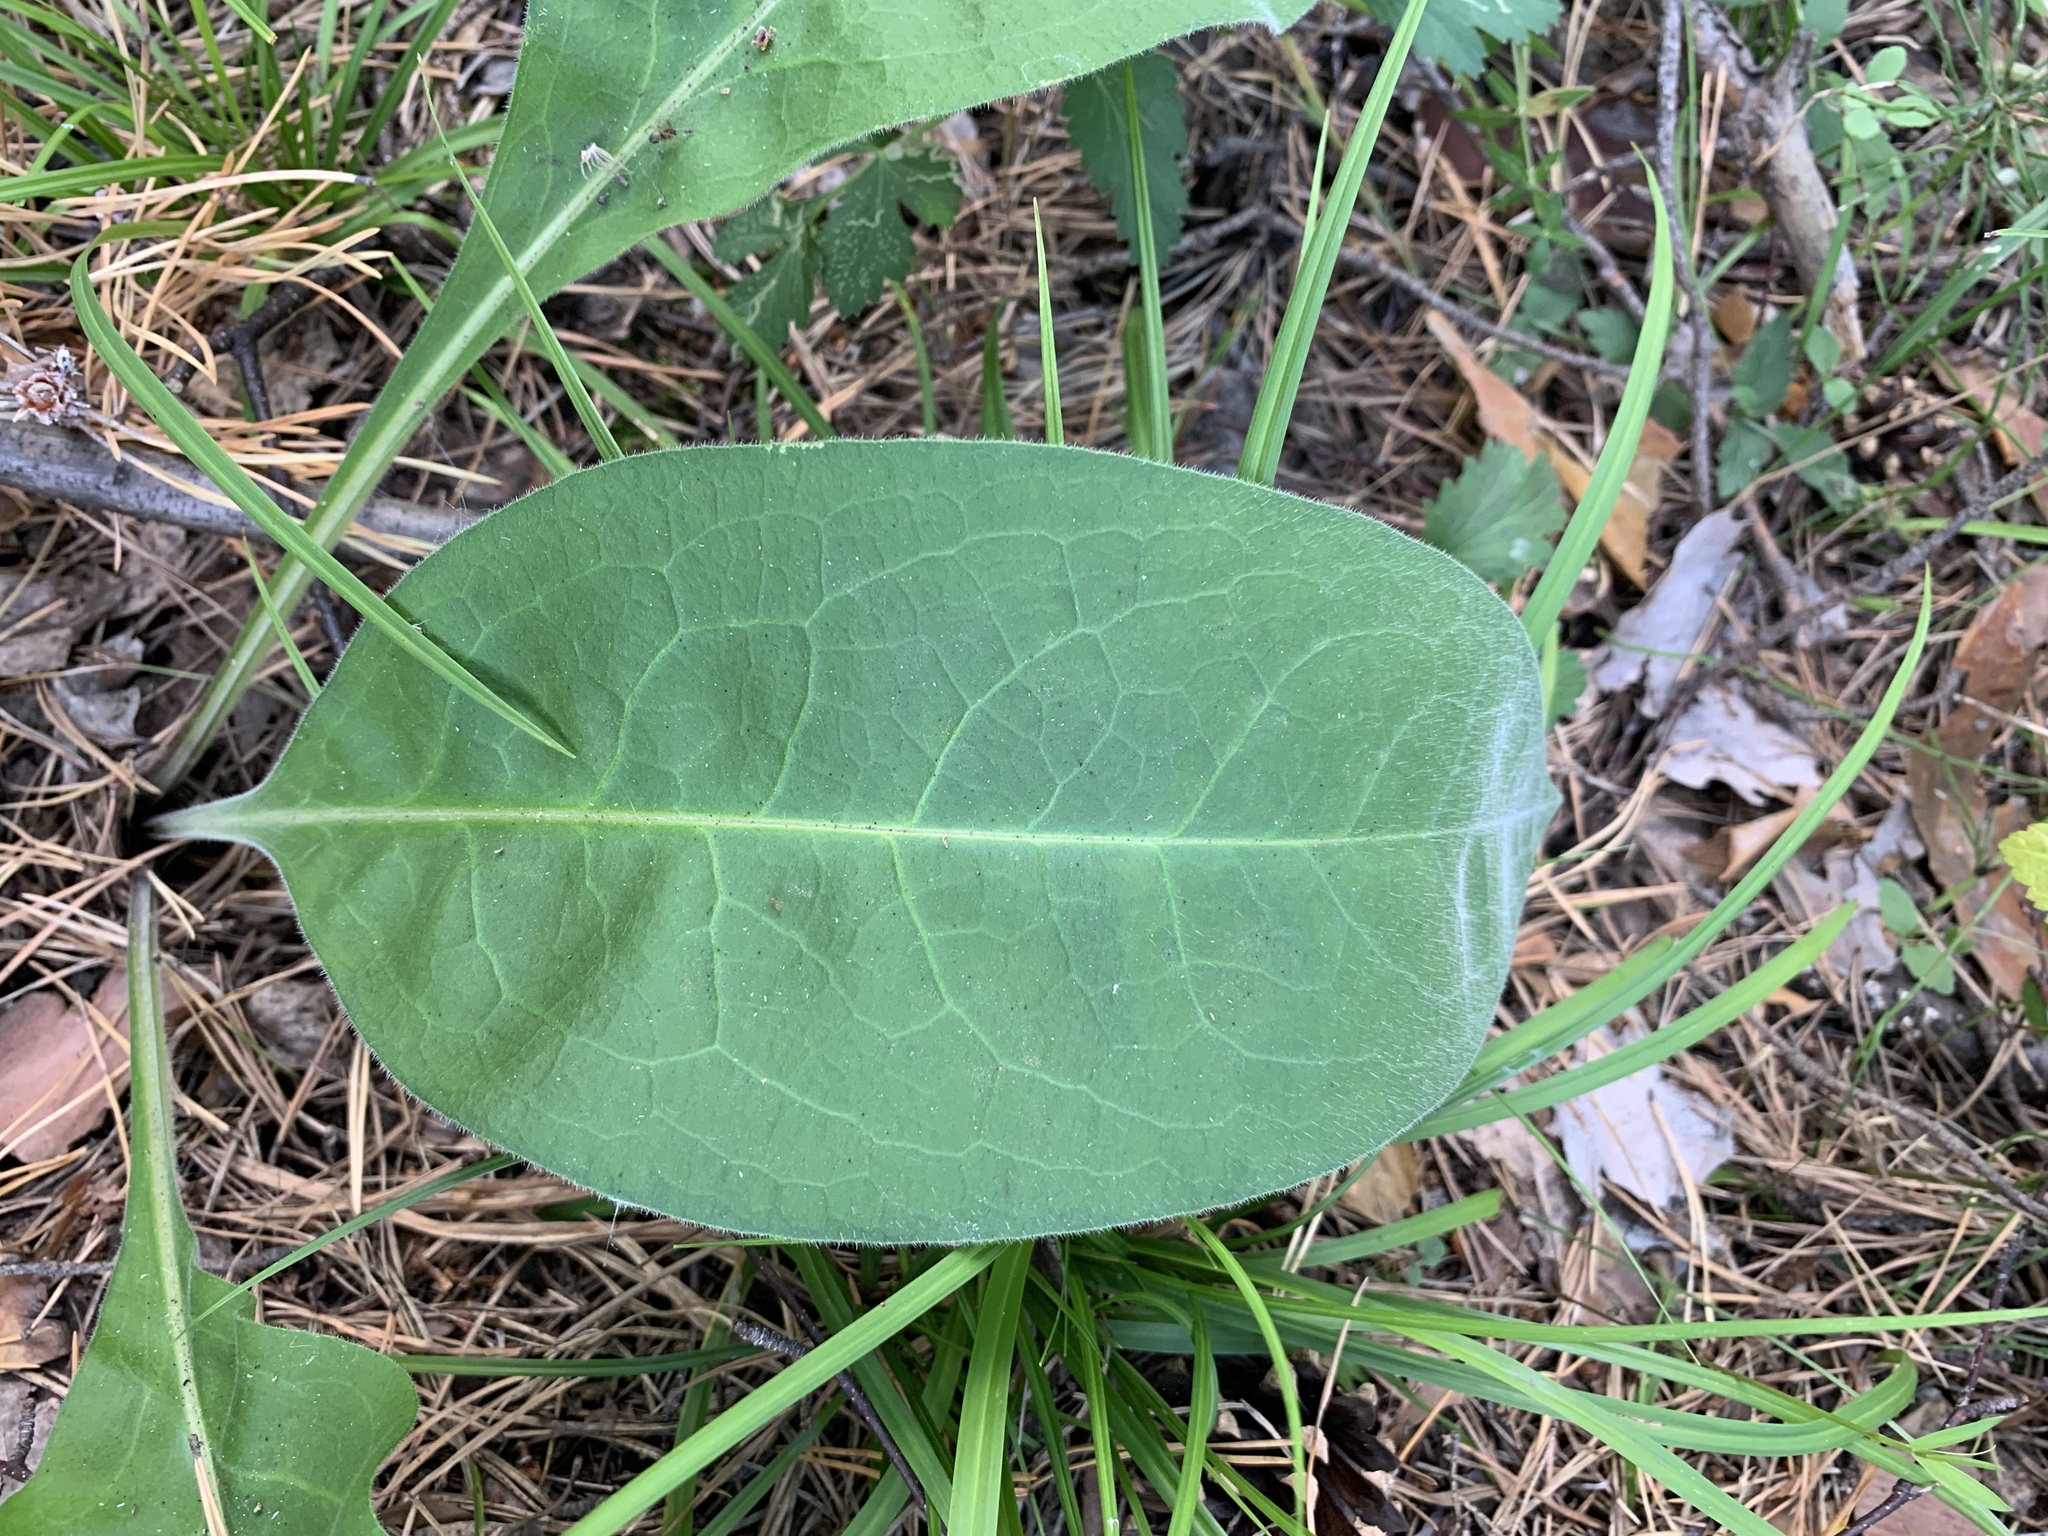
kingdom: Plantae
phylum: Tracheophyta
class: Magnoliopsida
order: Boraginales
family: Boraginaceae
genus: Pulmonaria
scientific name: Pulmonaria mollis
